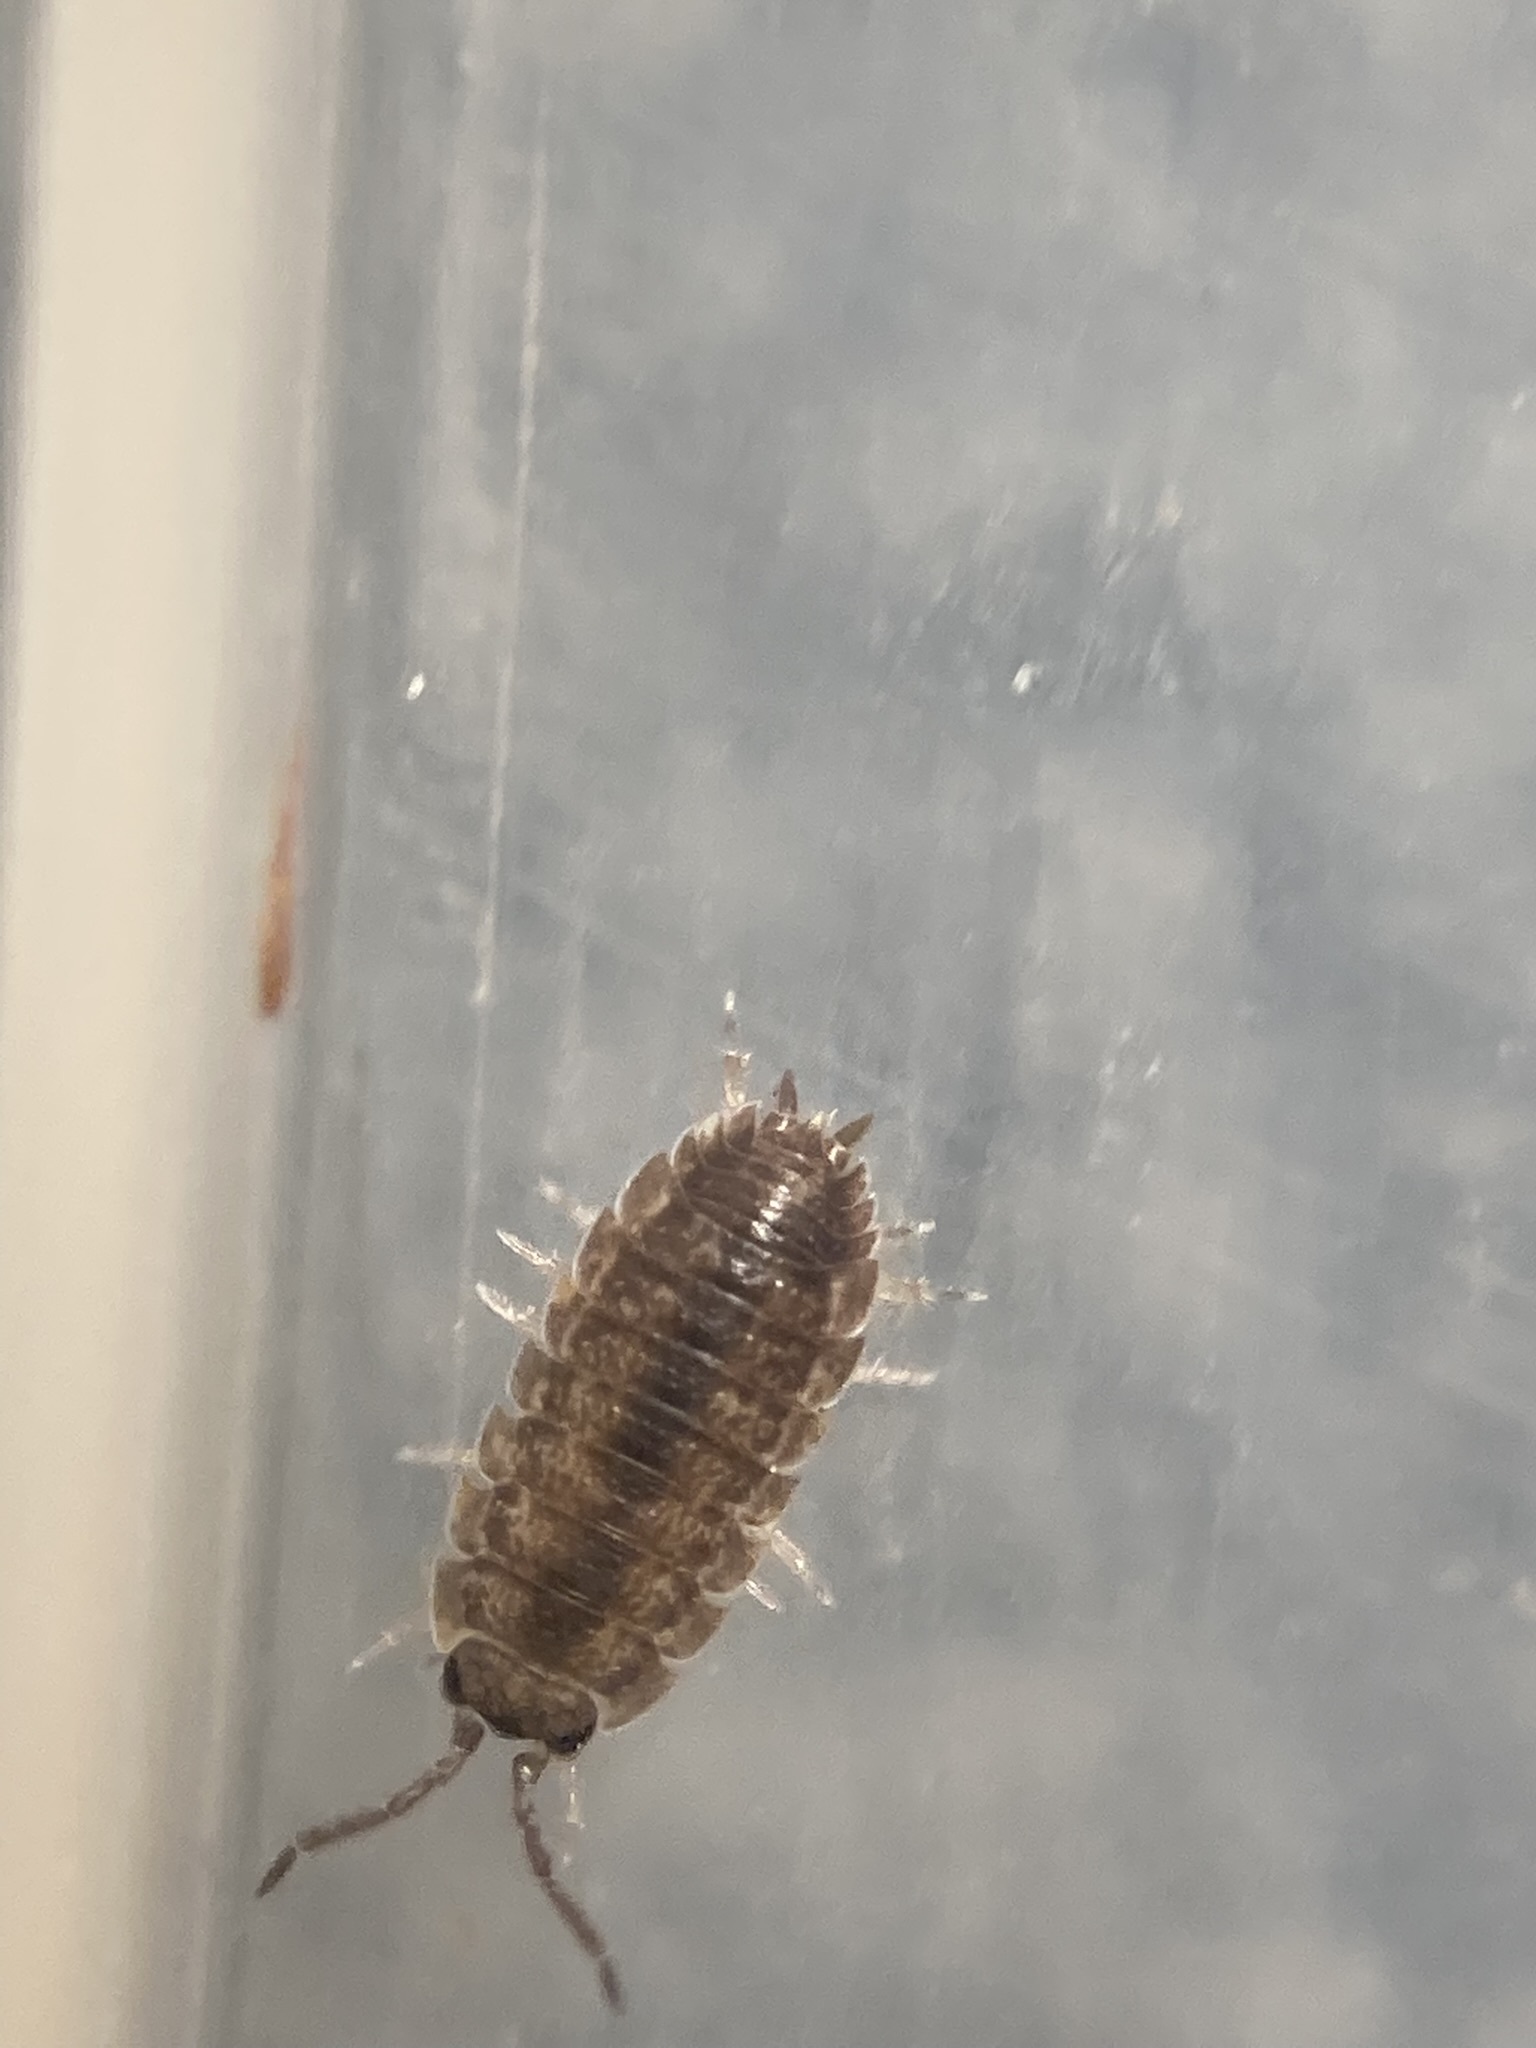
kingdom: Animalia
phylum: Arthropoda
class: Malacostraca
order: Isopoda
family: Porcellionidae
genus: Porcellio
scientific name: Porcellio scaber
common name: Common rough woodlouse
